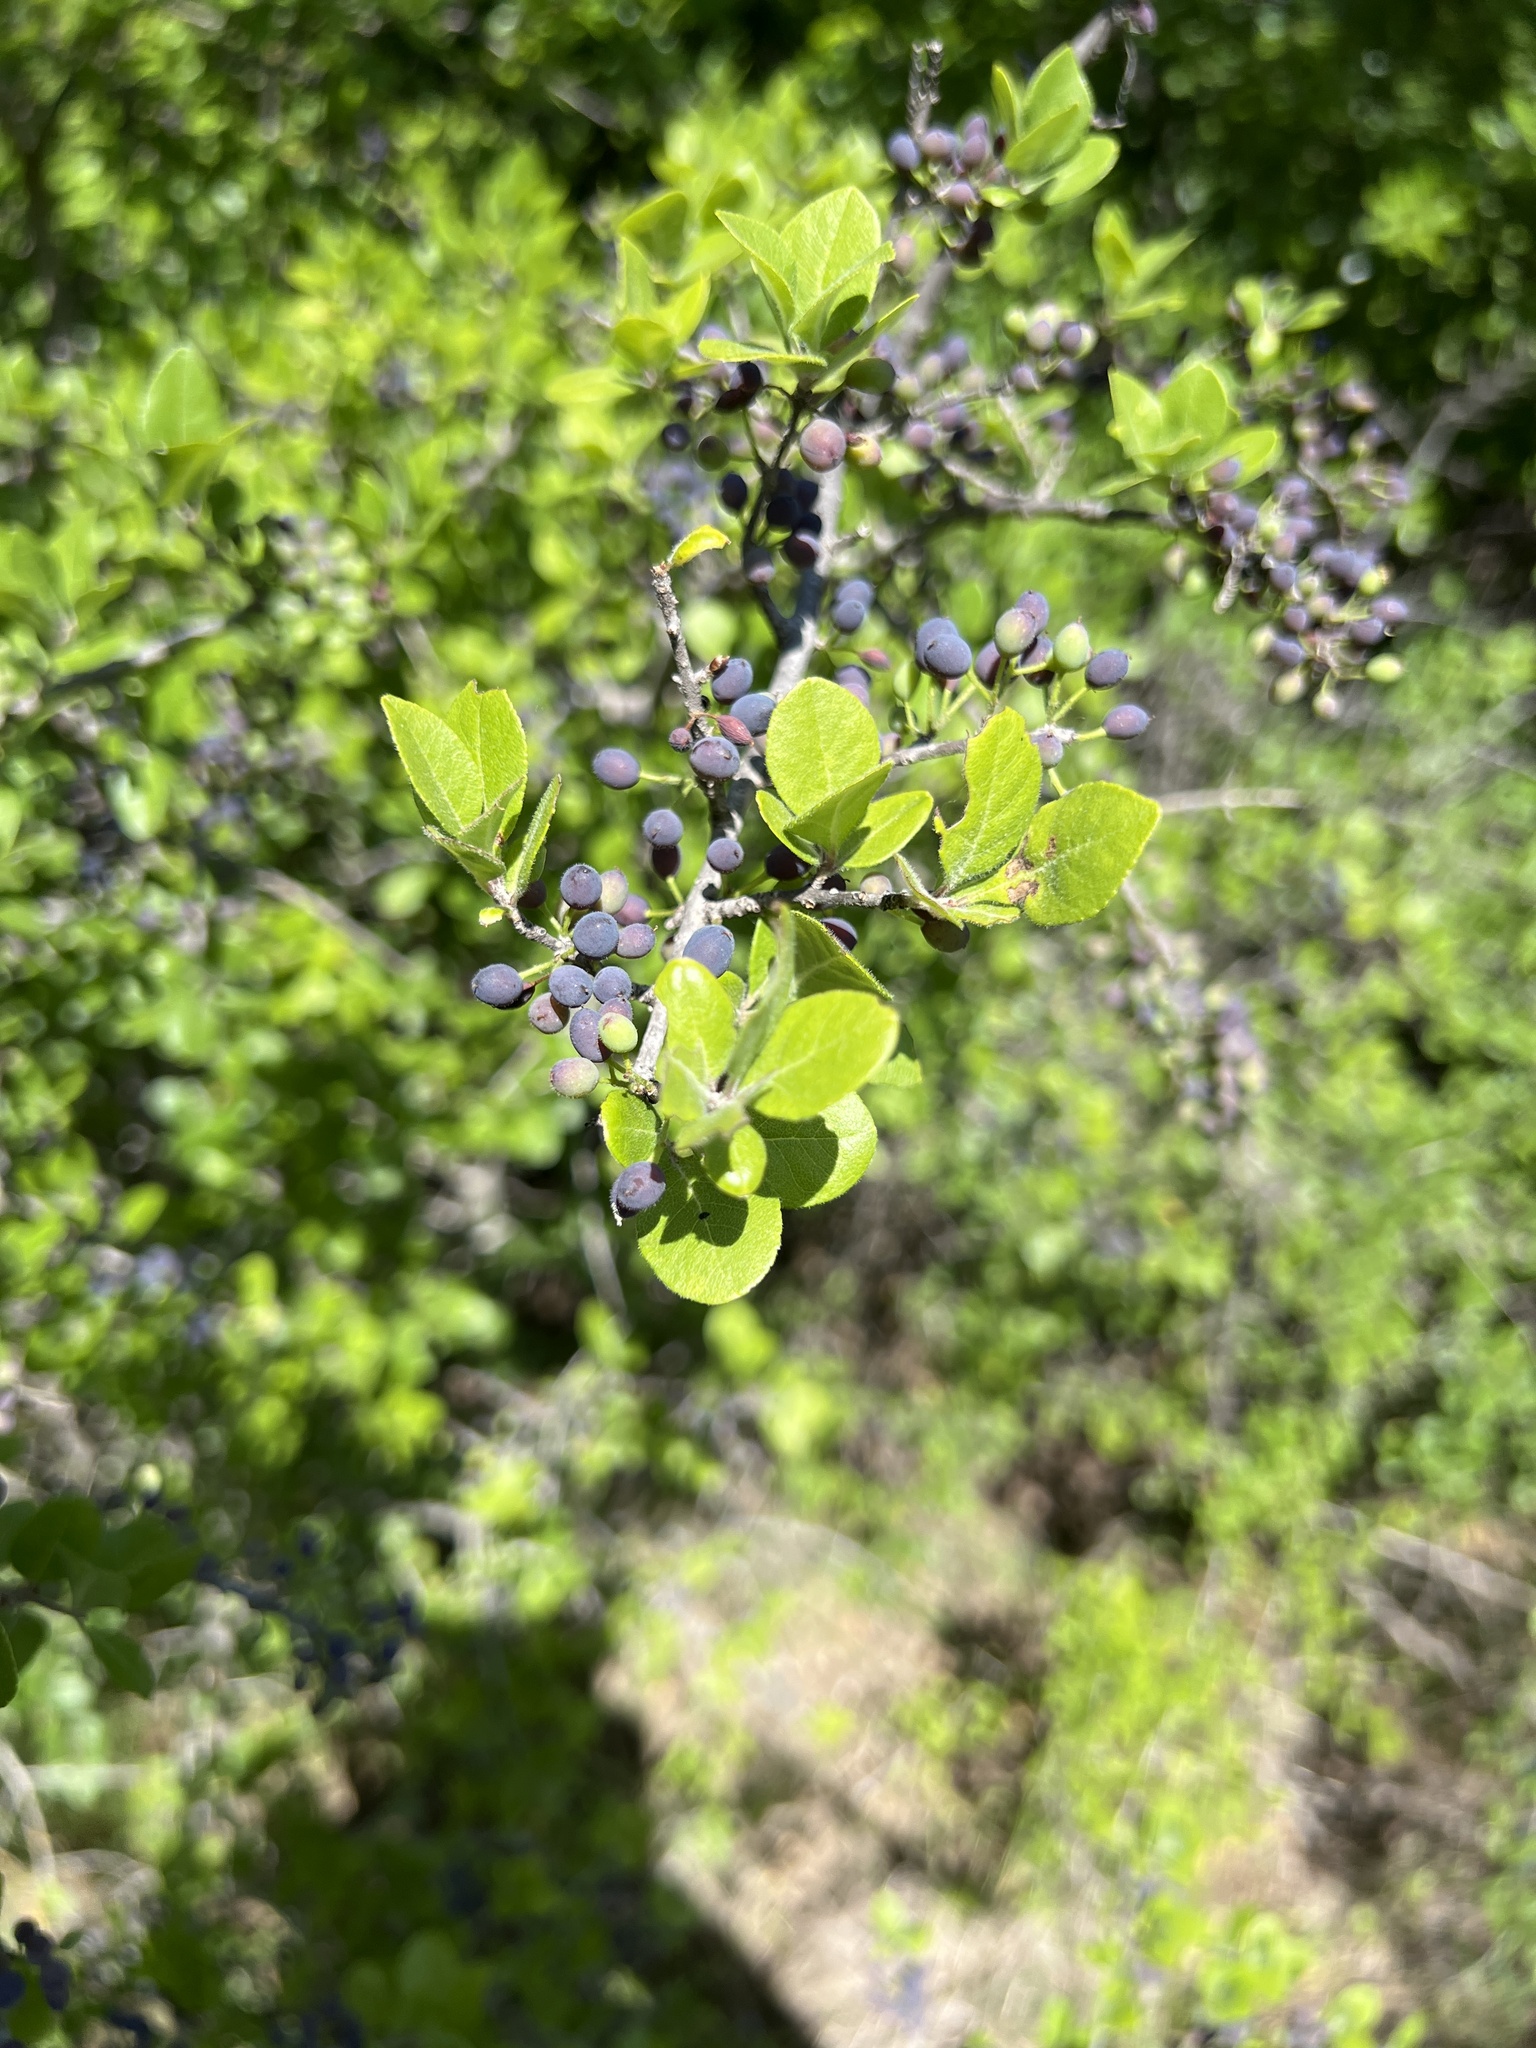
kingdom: Plantae
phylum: Tracheophyta
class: Magnoliopsida
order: Lamiales
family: Oleaceae
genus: Forestiera
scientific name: Forestiera pubescens
